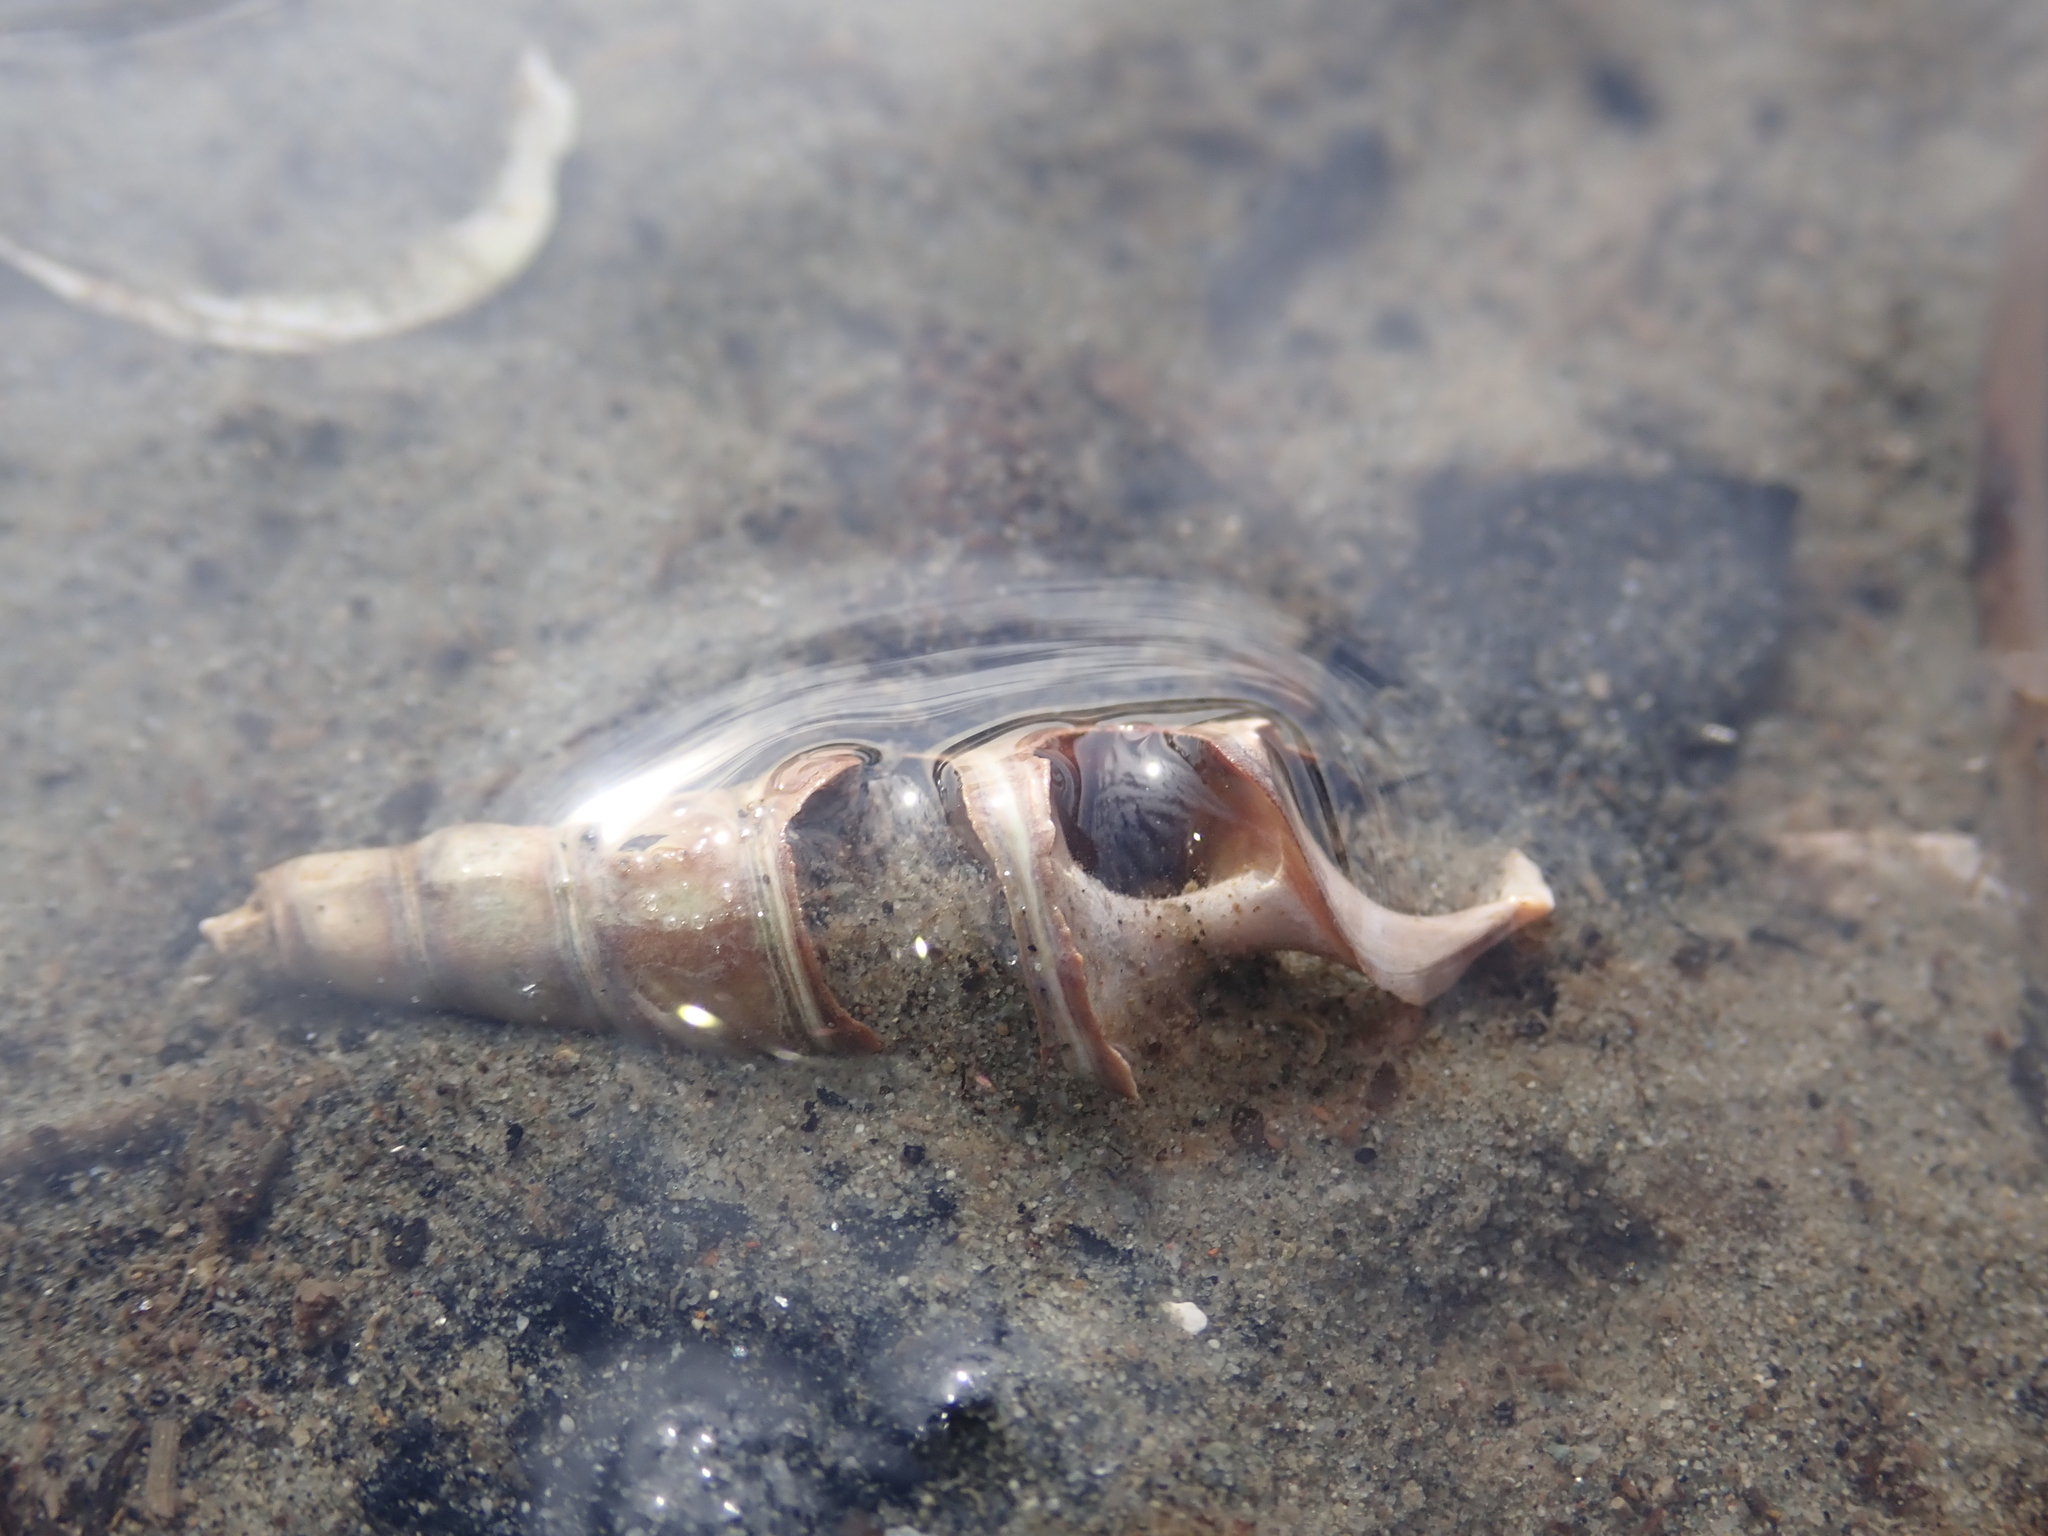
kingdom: Animalia
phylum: Mollusca
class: Gastropoda
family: Batillariidae
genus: Zeacumantus
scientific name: Zeacumantus lutulentus
